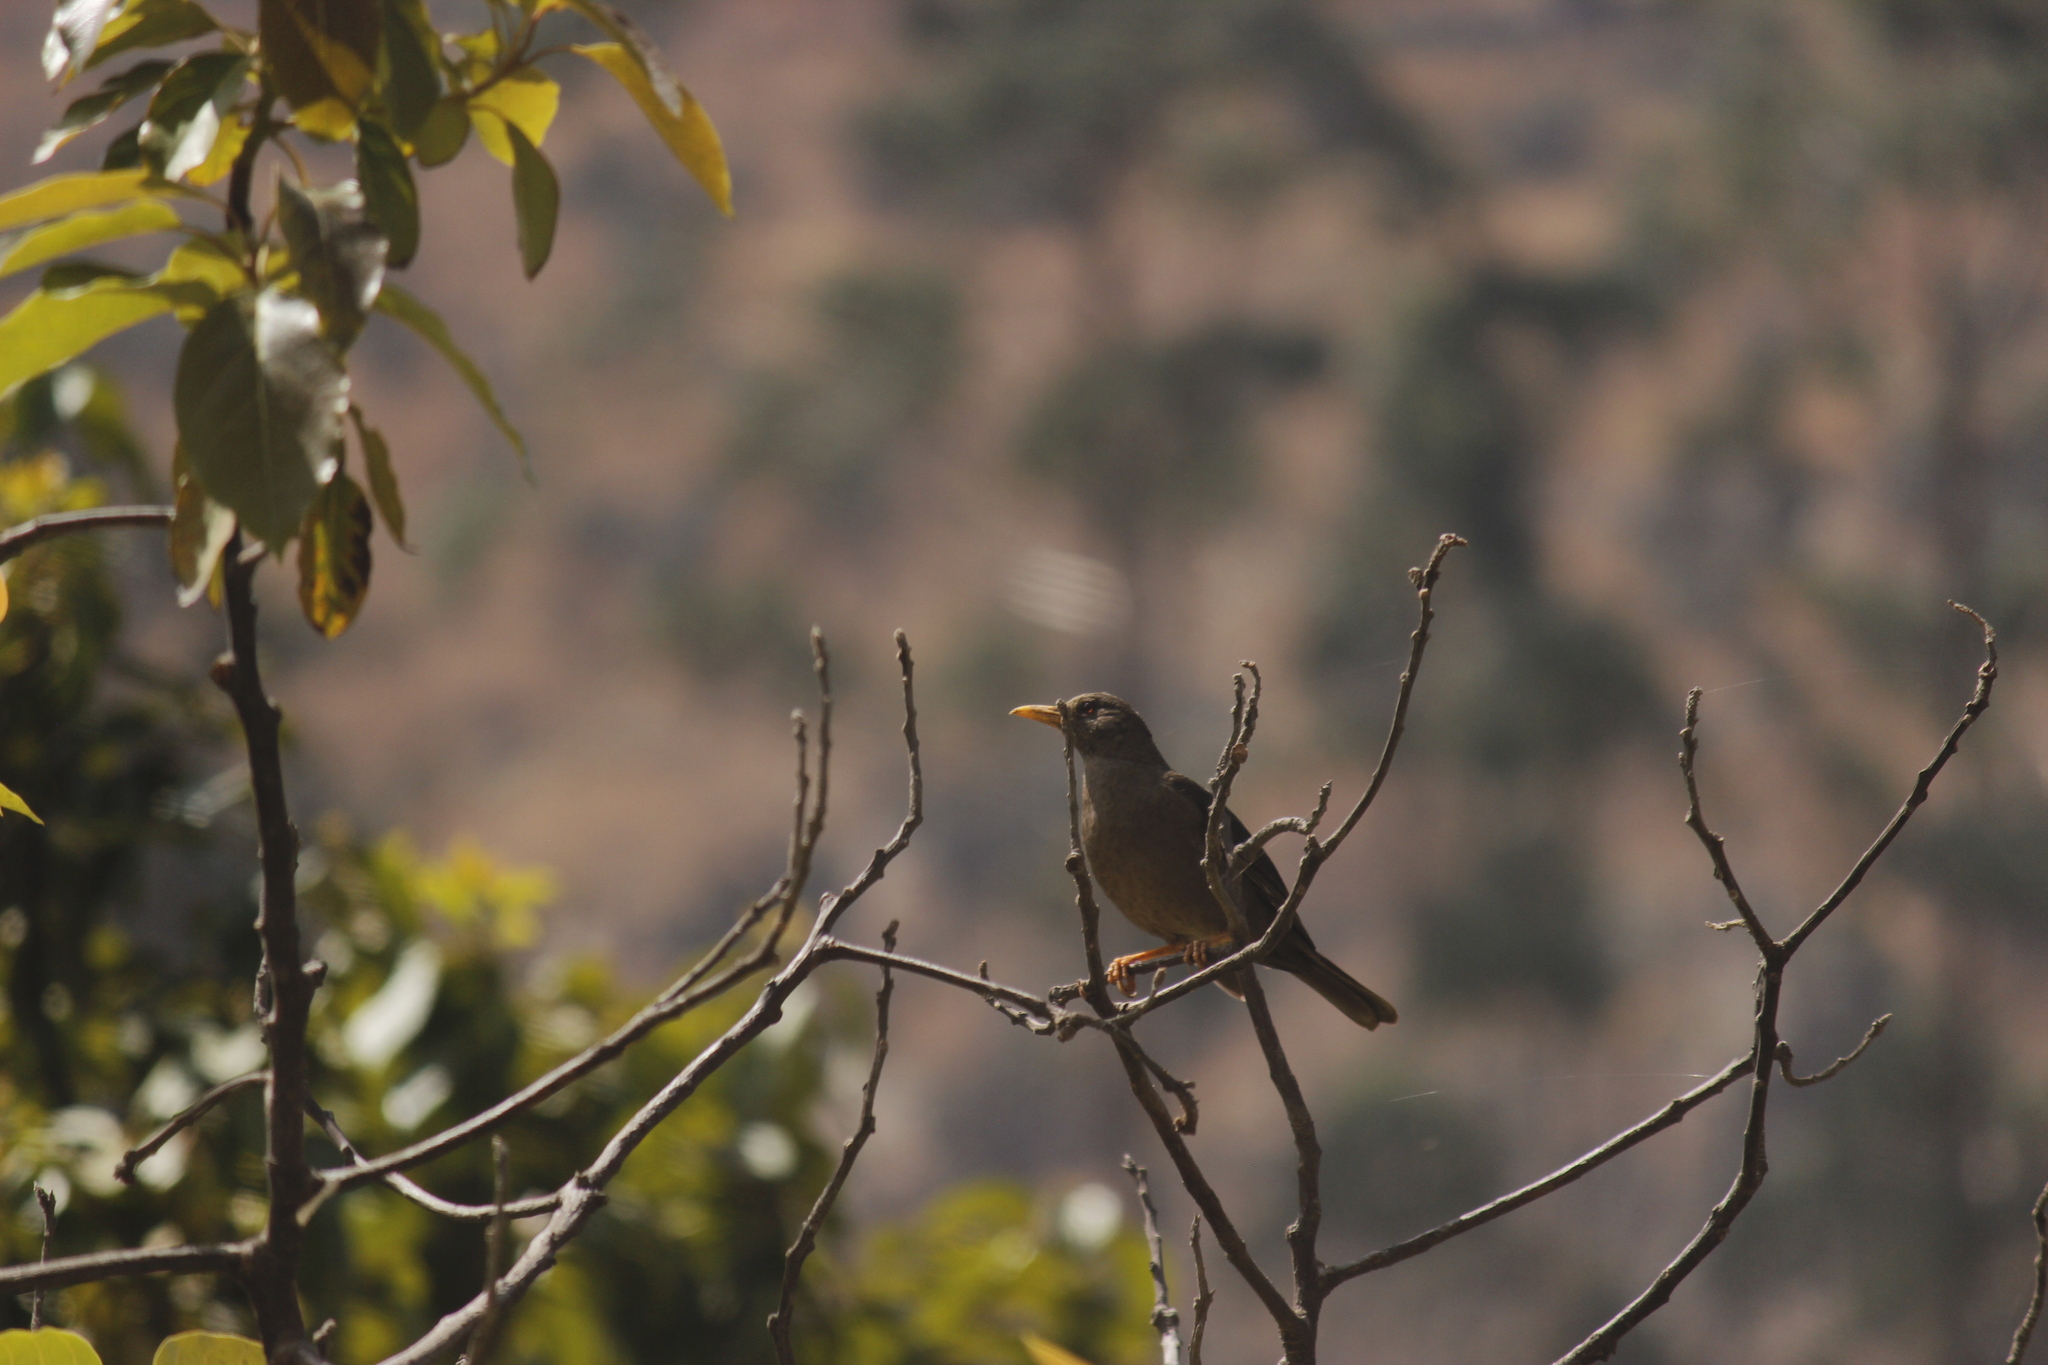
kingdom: Animalia
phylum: Chordata
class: Aves
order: Passeriformes
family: Turdidae
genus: Turdus
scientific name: Turdus chiguanco
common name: Chiguanco thrush
